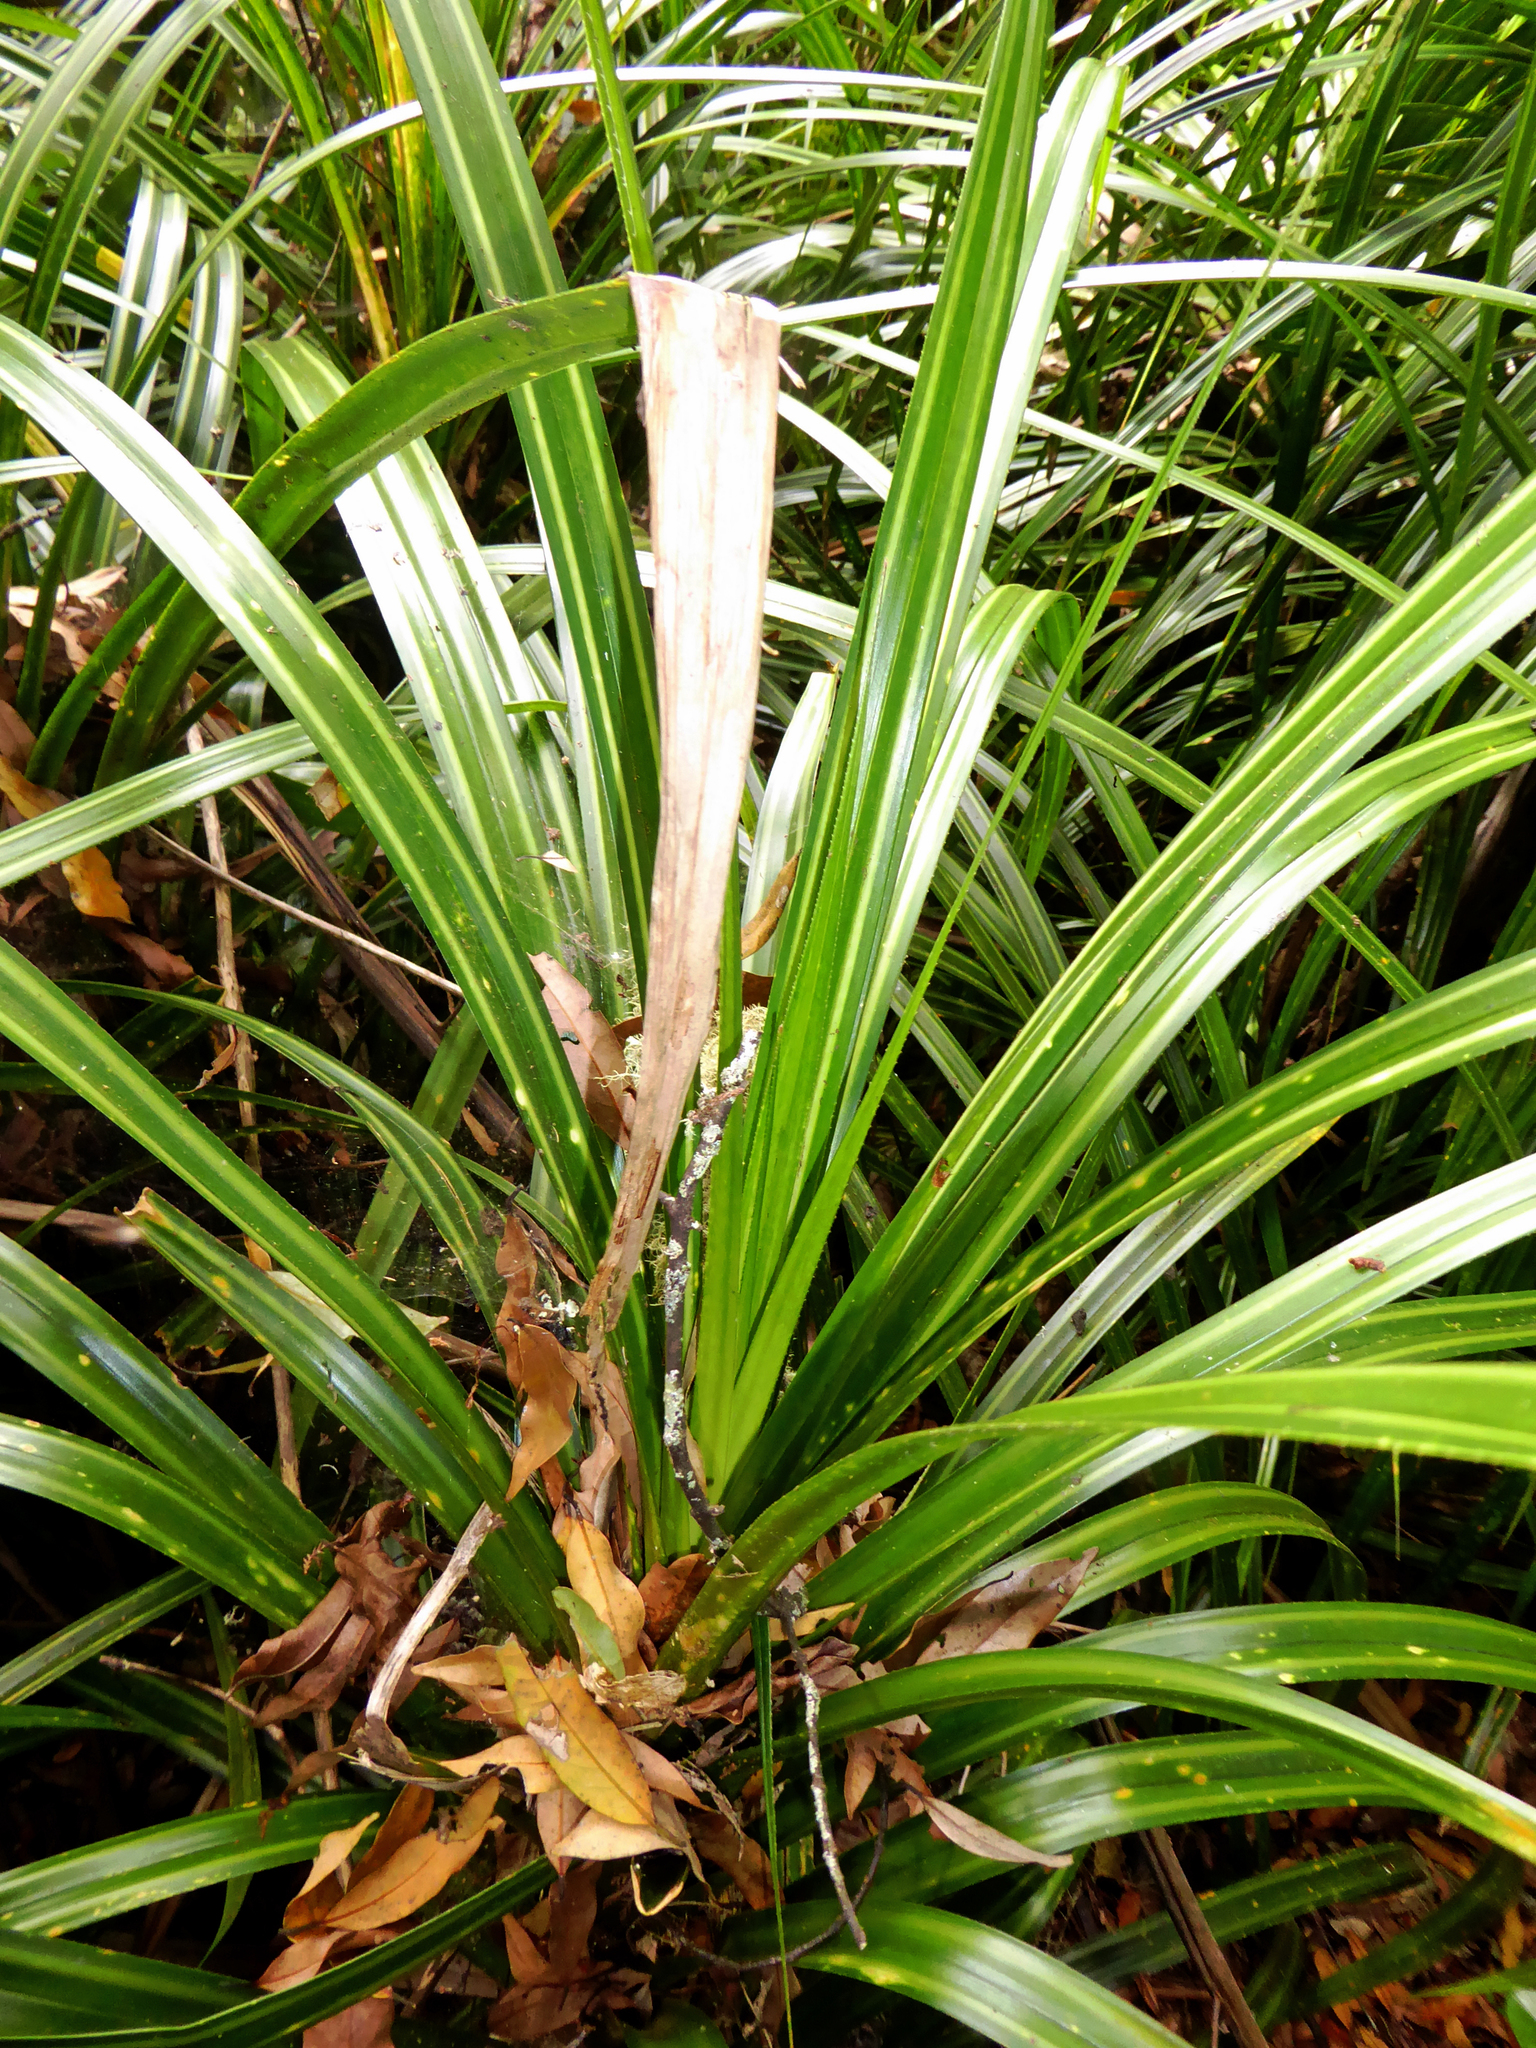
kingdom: Plantae
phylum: Tracheophyta
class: Liliopsida
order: Pandanales
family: Pandanaceae
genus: Freycinetia
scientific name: Freycinetia banksii
